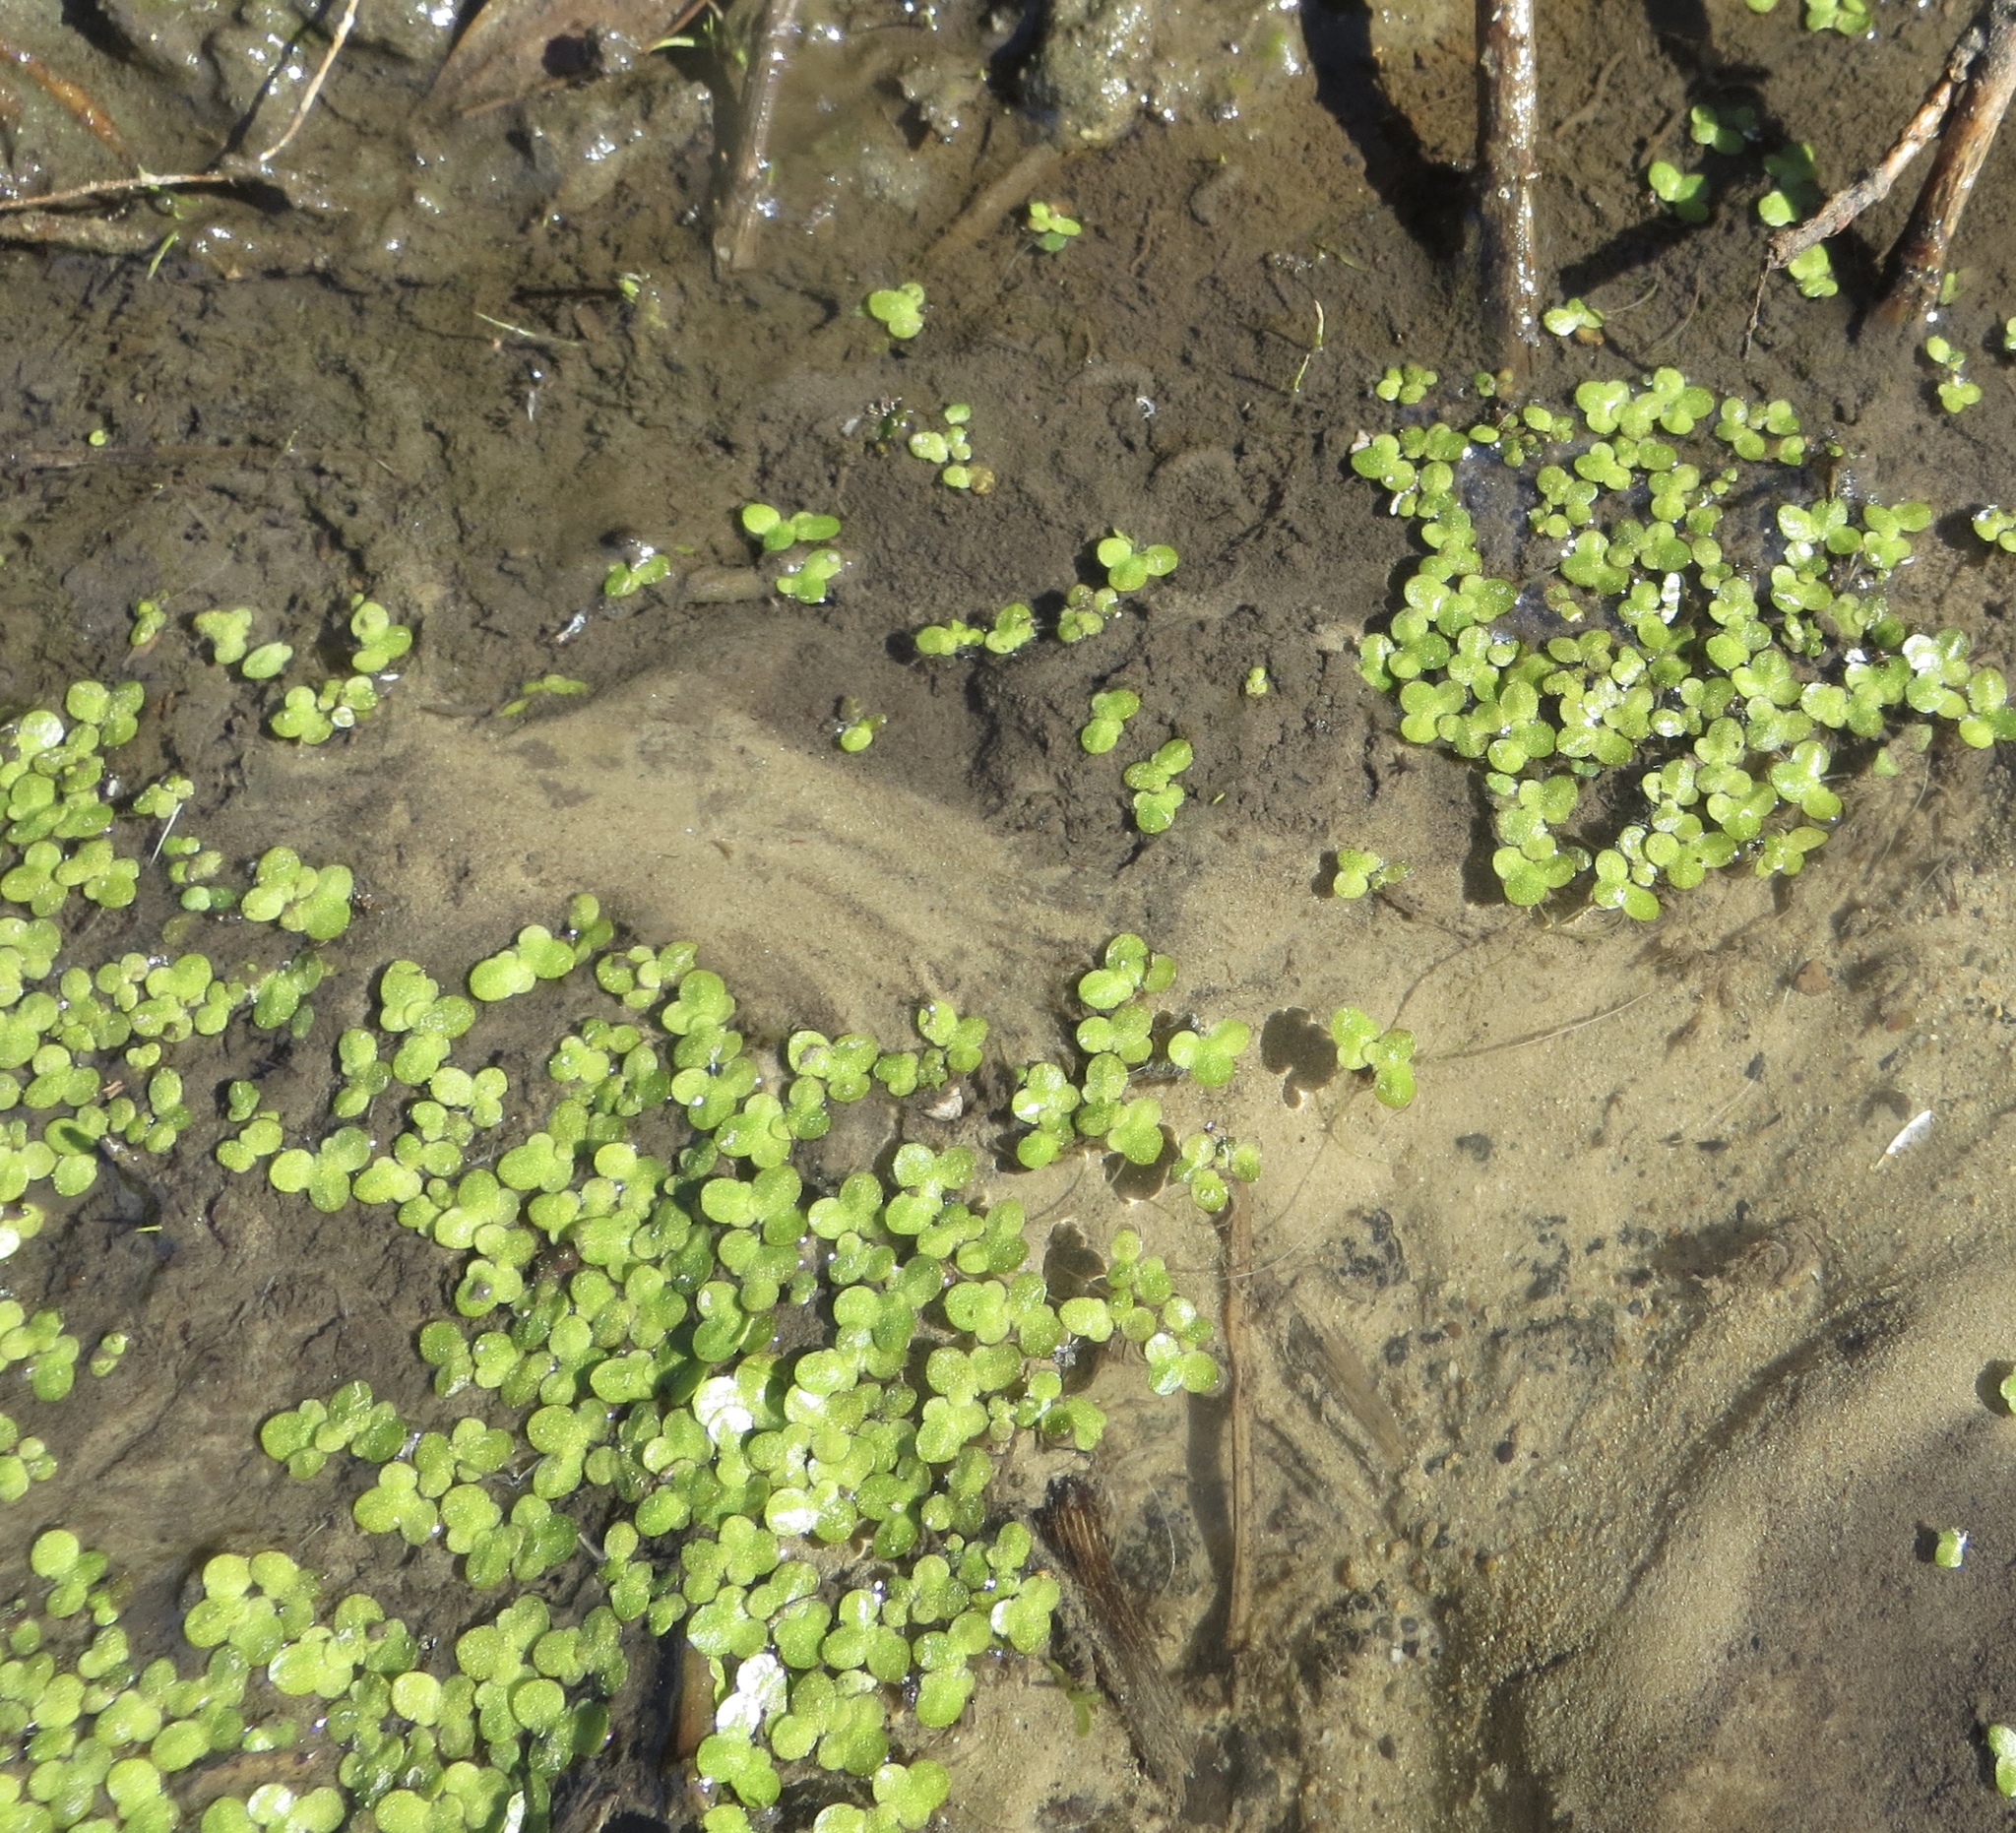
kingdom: Plantae
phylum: Tracheophyta
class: Liliopsida
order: Alismatales
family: Araceae
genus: Lemna
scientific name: Lemna minor
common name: Common duckweed
